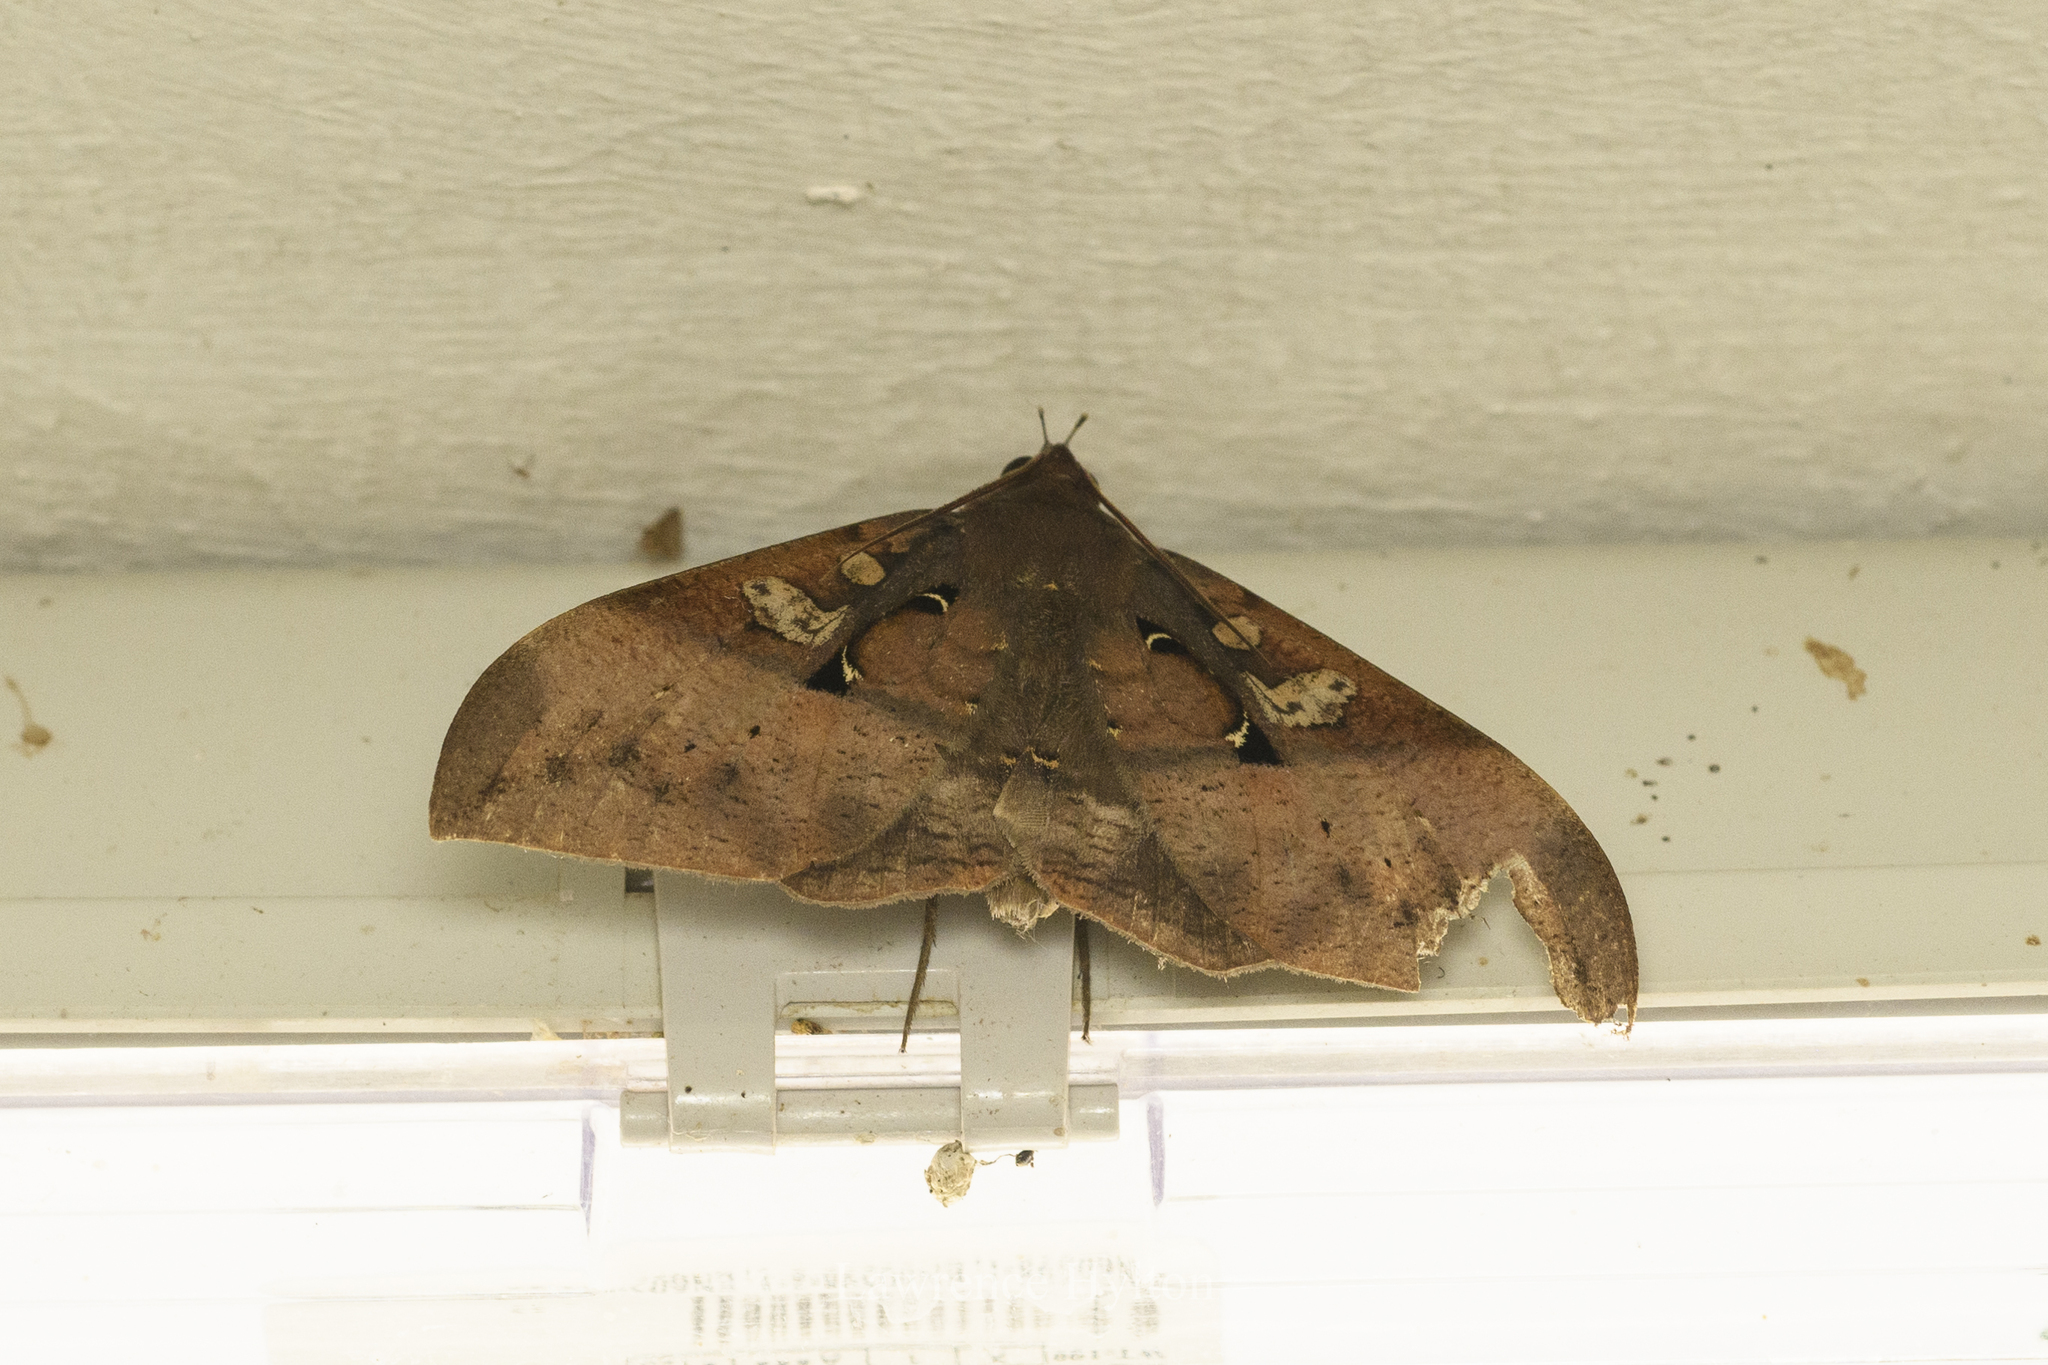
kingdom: Animalia
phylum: Arthropoda
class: Insecta
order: Lepidoptera
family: Erebidae
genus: Ischyja
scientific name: Ischyja manlia
